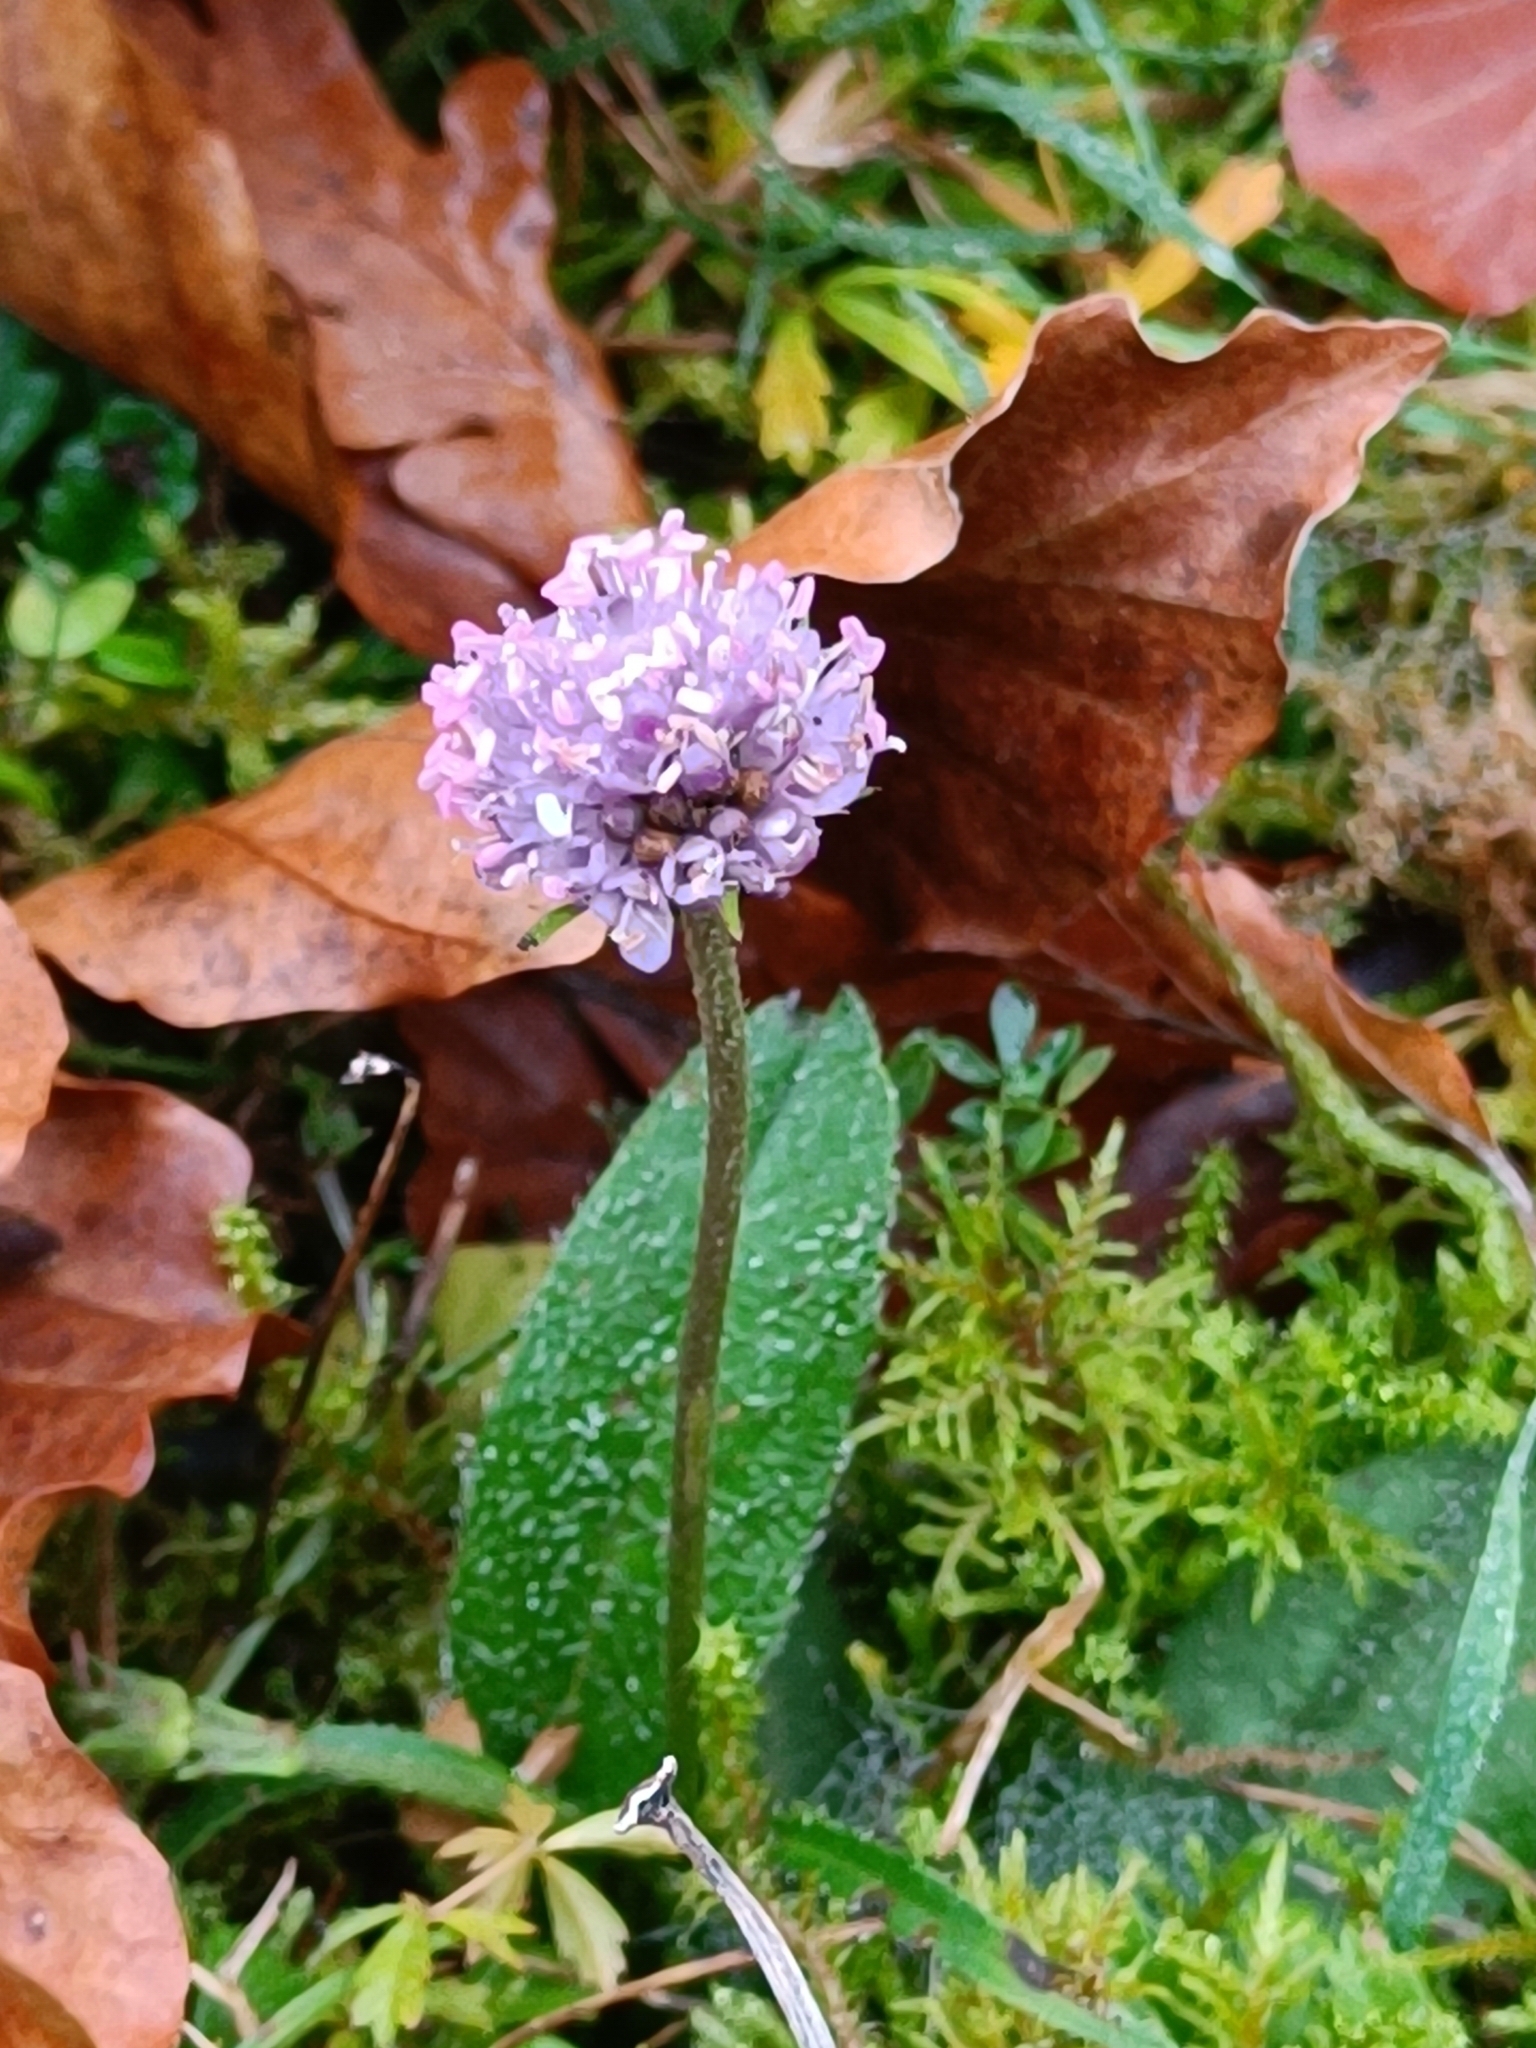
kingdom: Plantae
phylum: Tracheophyta
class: Magnoliopsida
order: Dipsacales
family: Caprifoliaceae
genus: Succisa
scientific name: Succisa pratensis
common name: Devil's-bit
